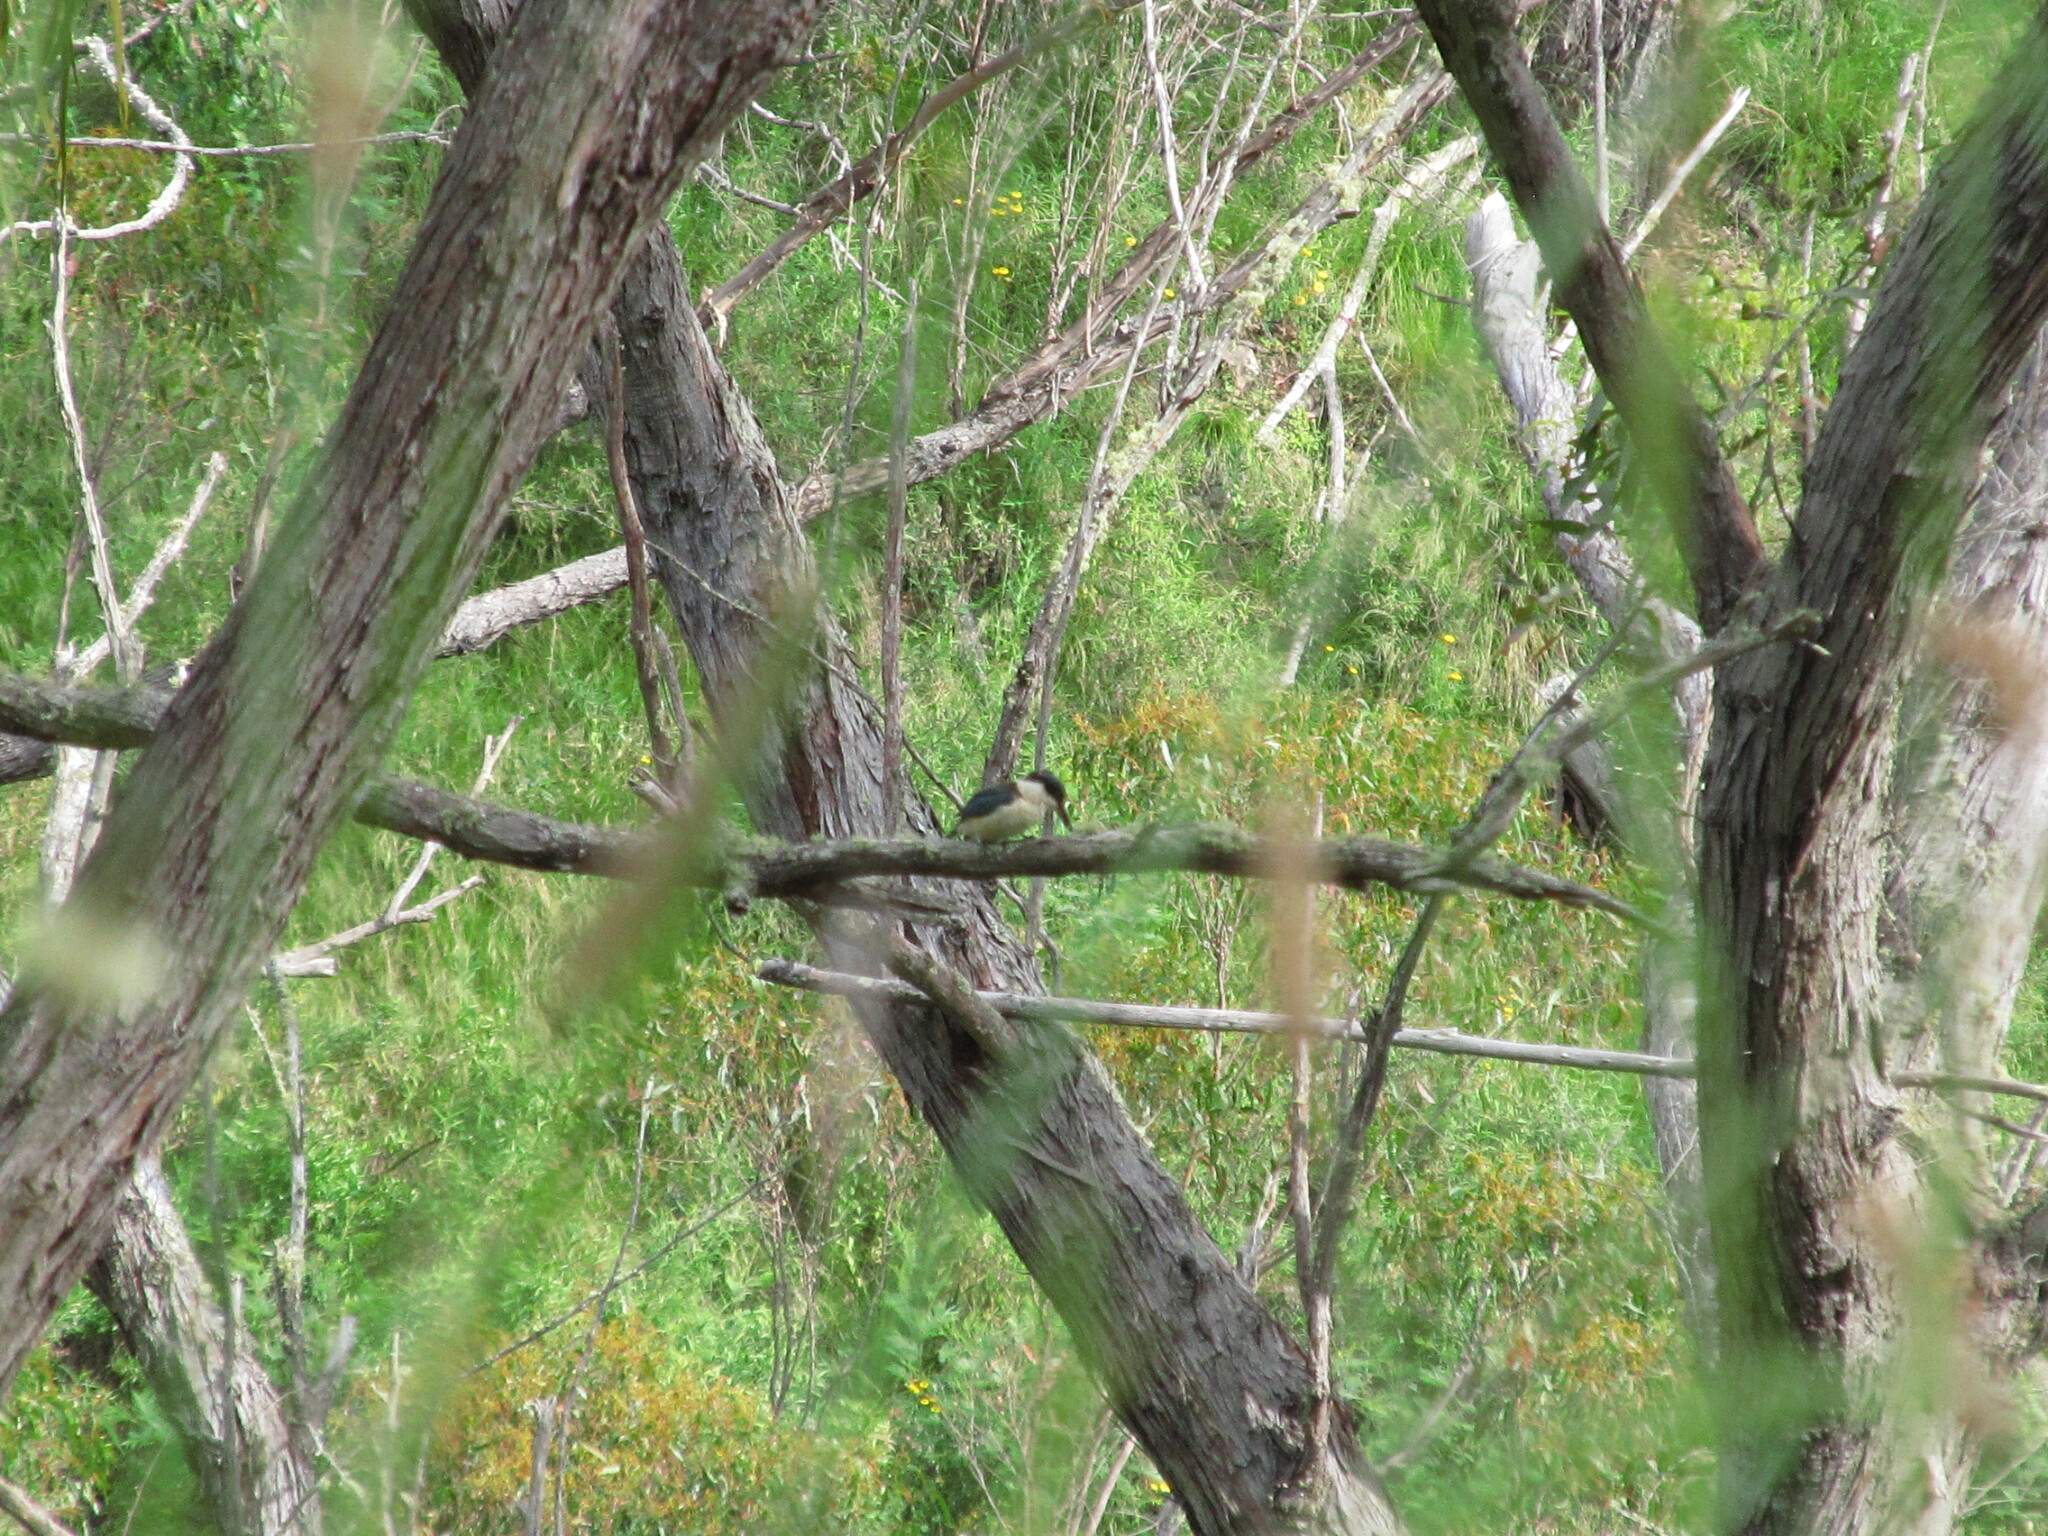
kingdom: Animalia
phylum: Chordata
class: Aves
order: Coraciiformes
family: Alcedinidae
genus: Todiramphus
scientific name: Todiramphus sanctus
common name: Sacred kingfisher
